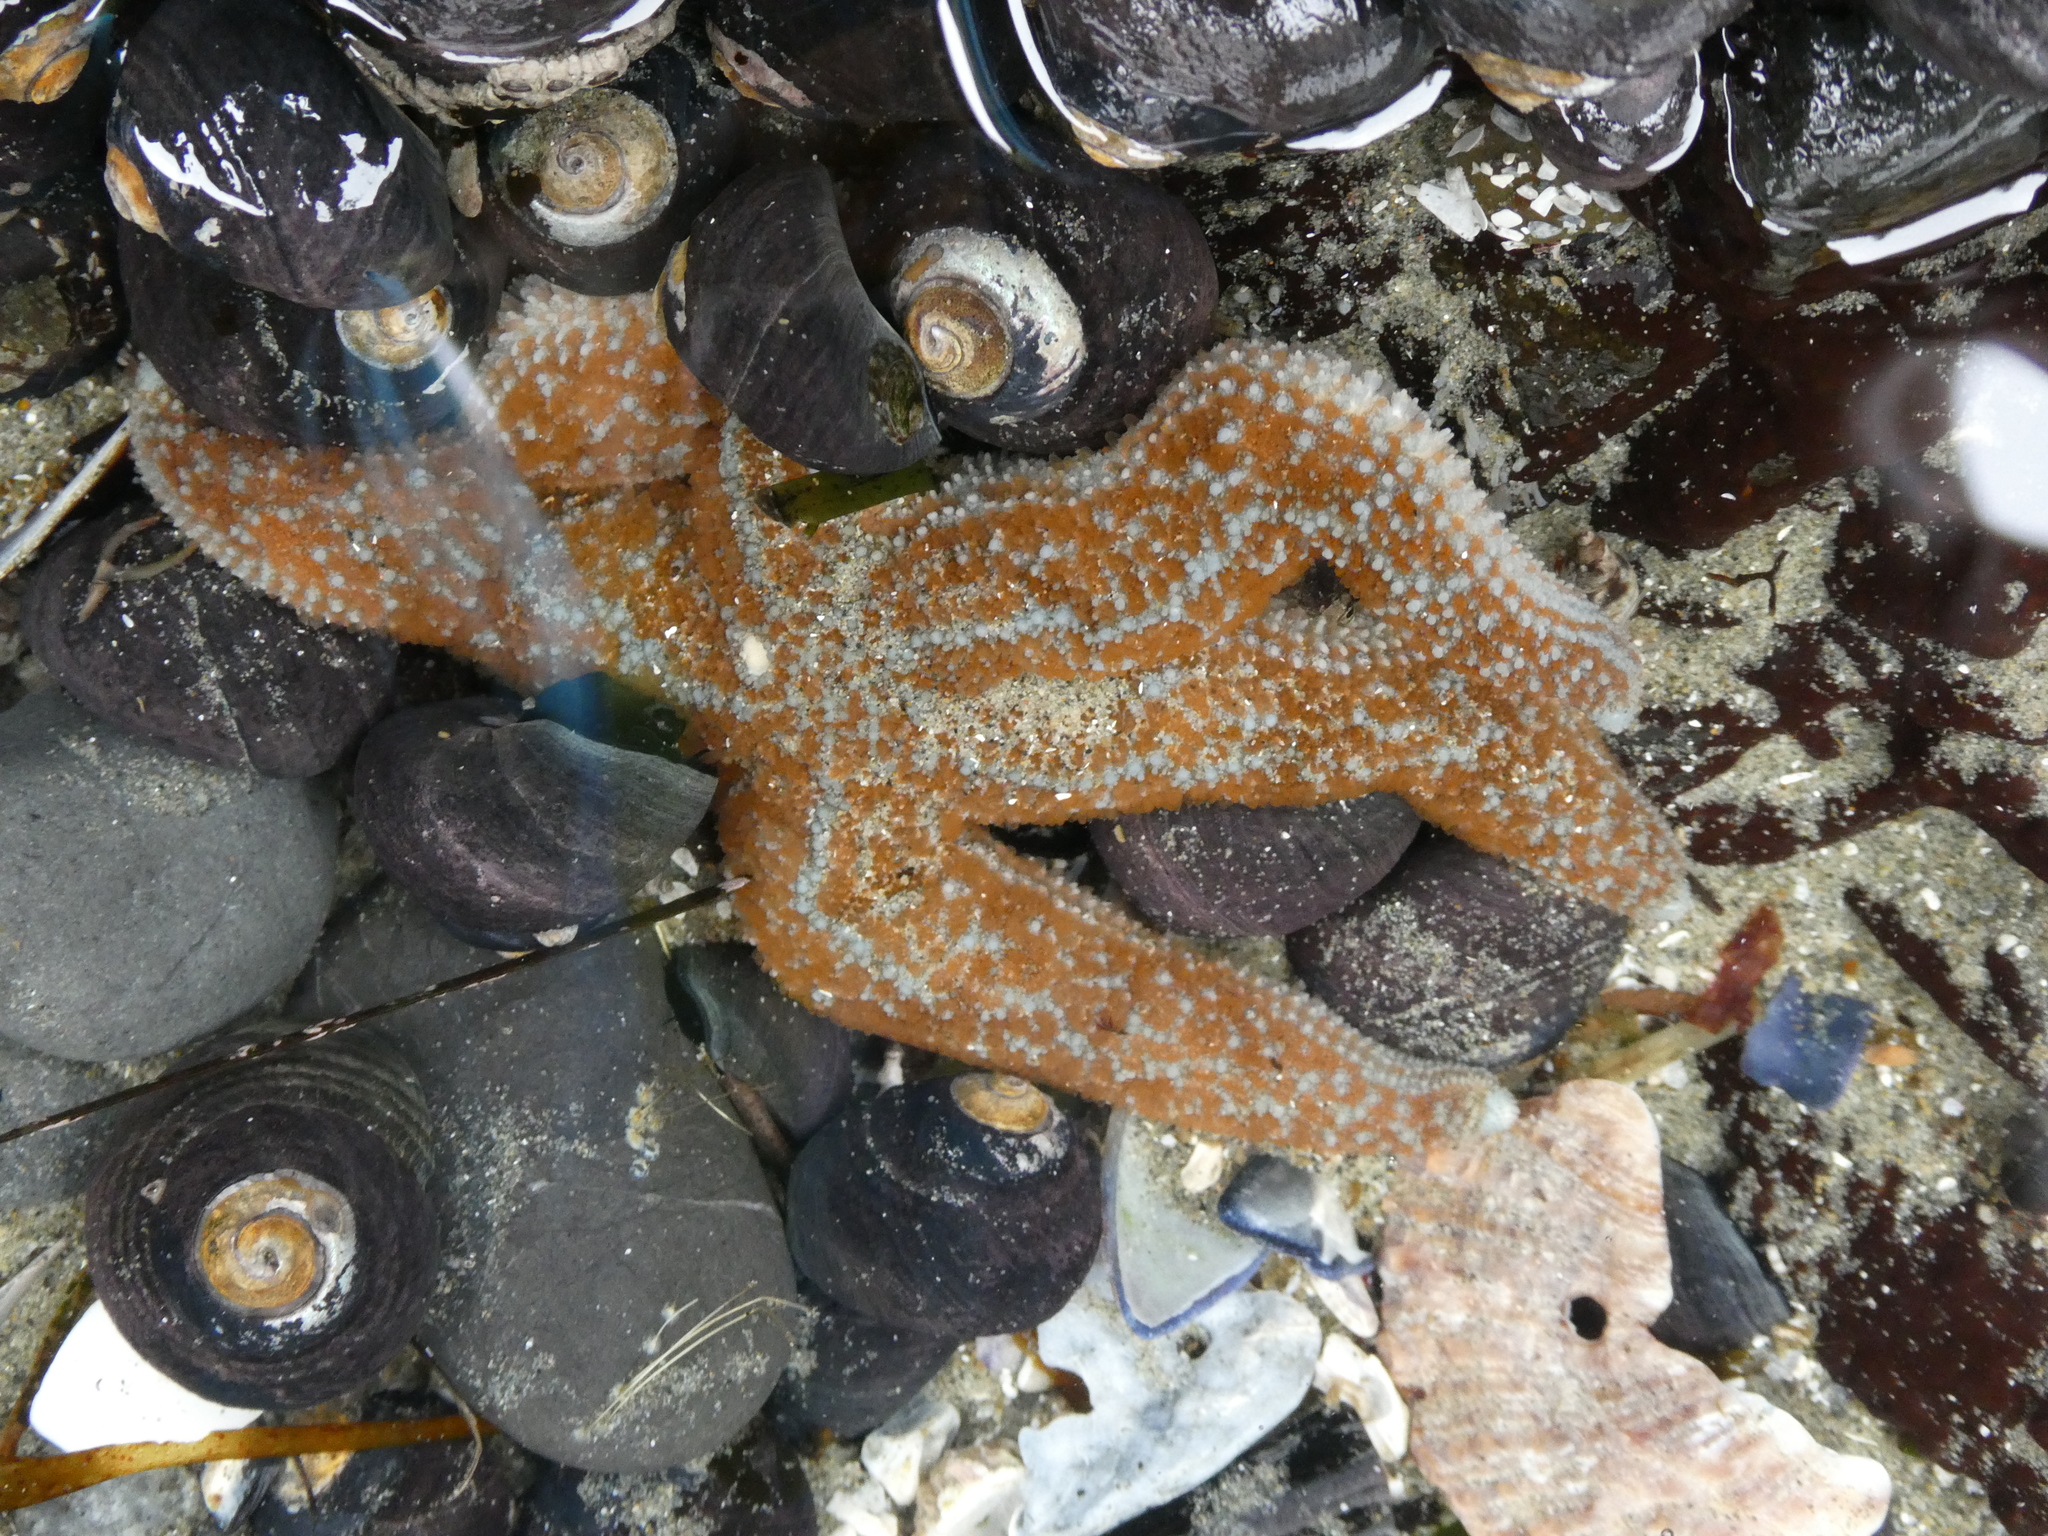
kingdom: Animalia
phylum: Echinodermata
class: Asteroidea
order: Forcipulatida
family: Asteriidae
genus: Evasterias
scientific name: Evasterias troschelii
